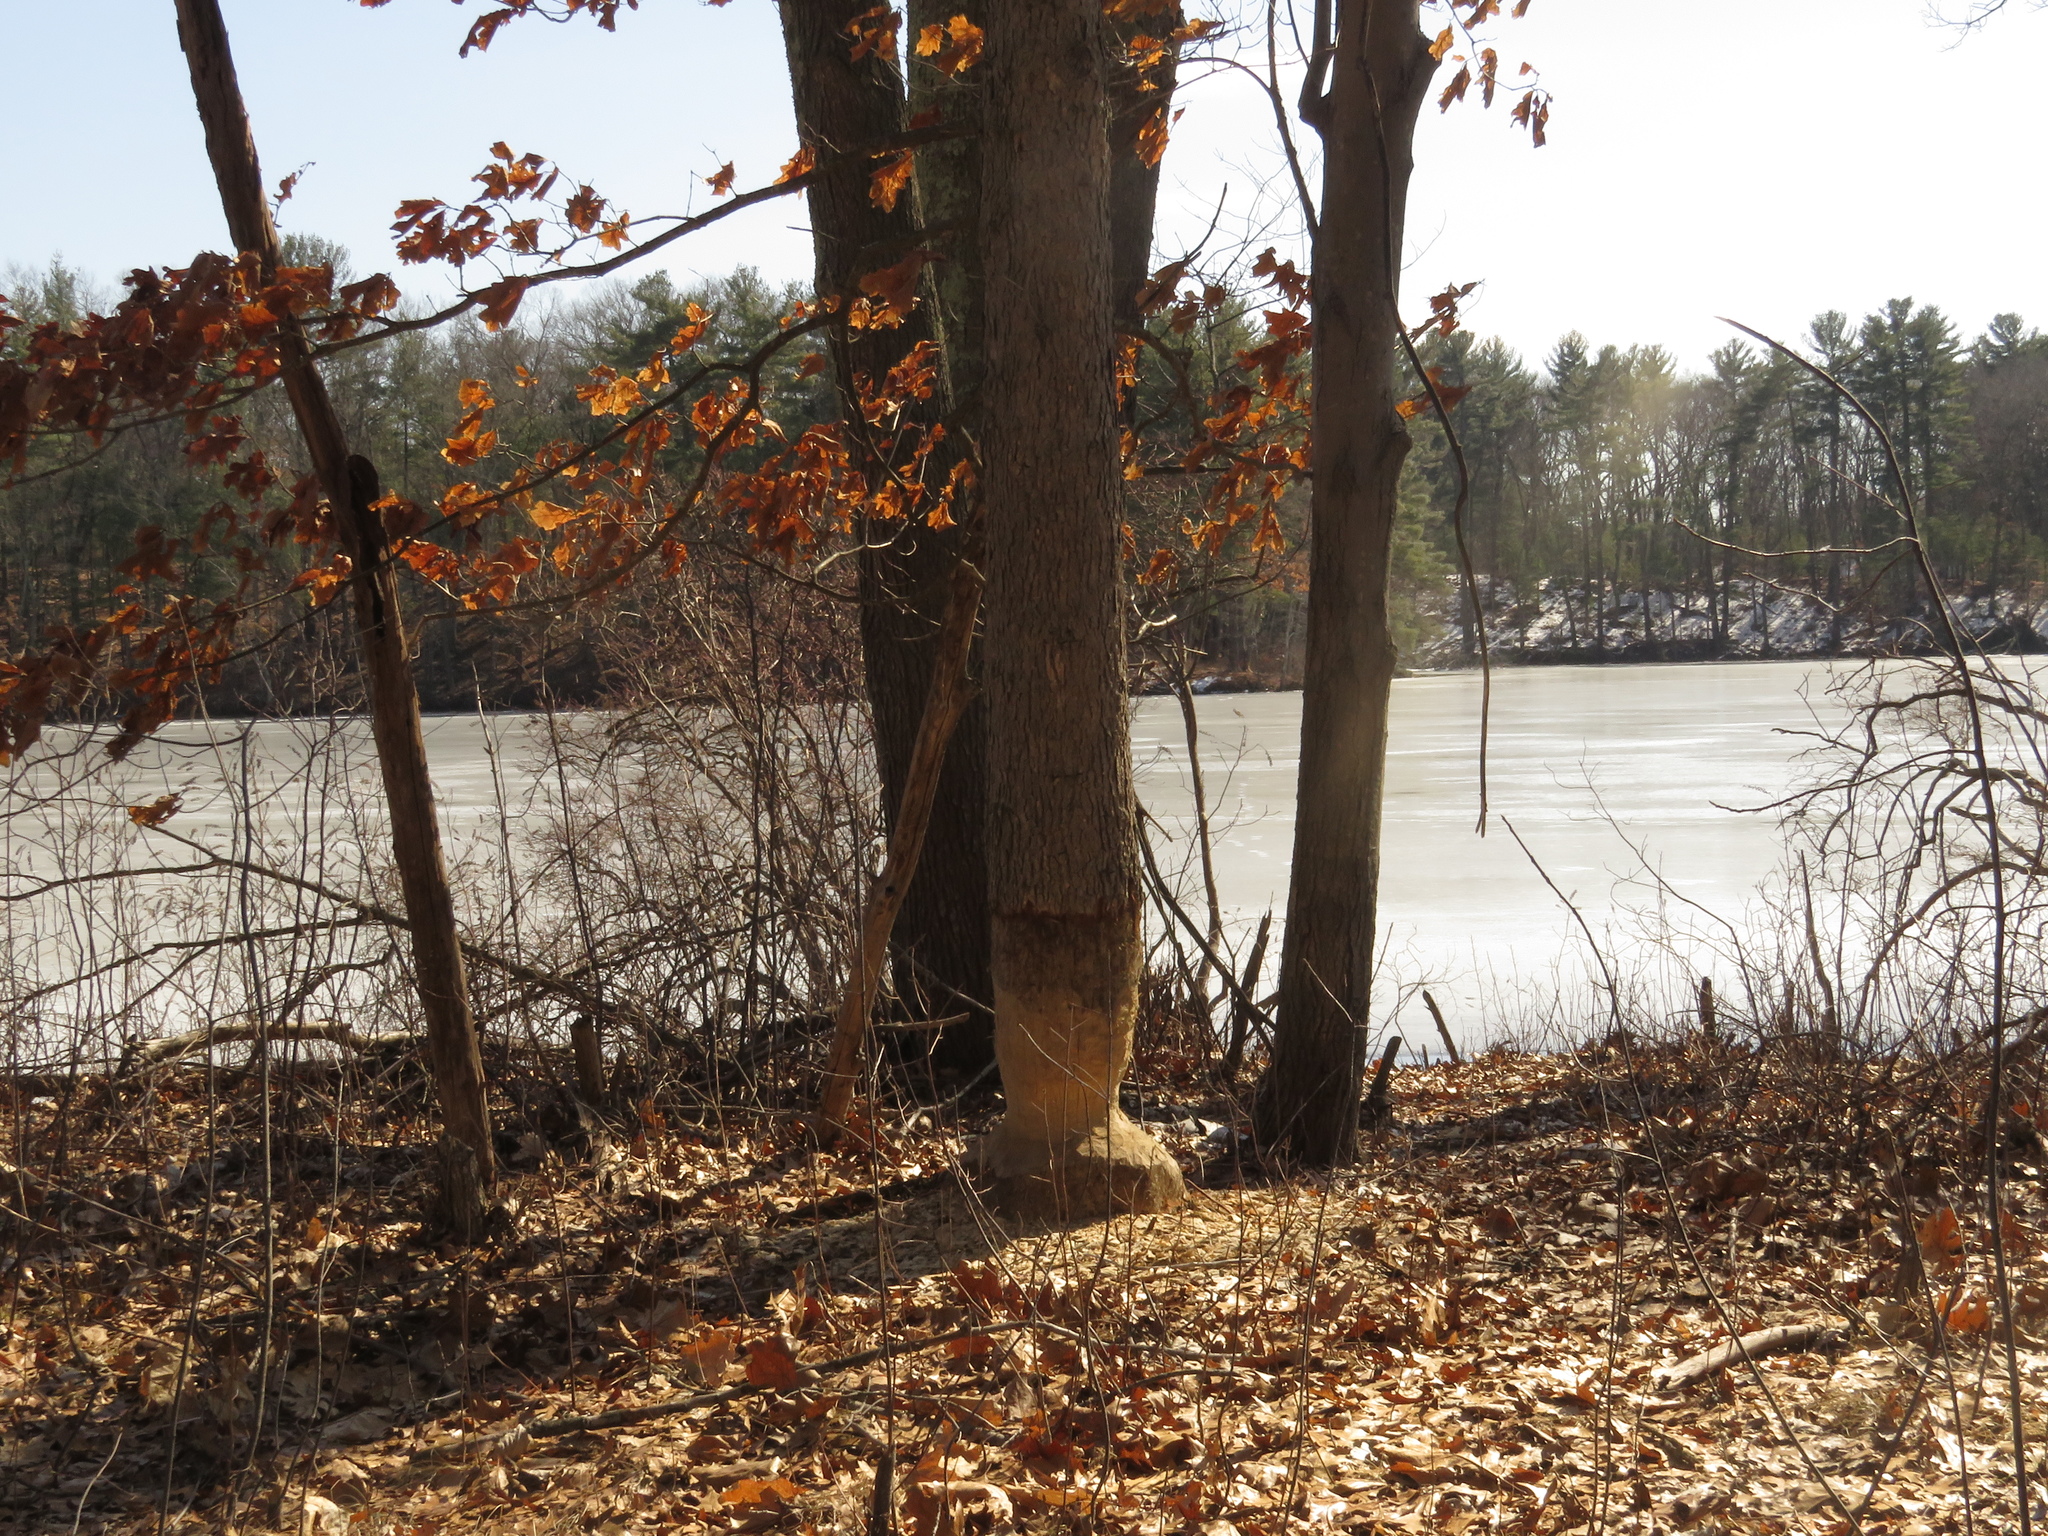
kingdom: Animalia
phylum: Chordata
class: Mammalia
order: Rodentia
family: Castoridae
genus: Castor
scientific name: Castor canadensis
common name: American beaver
